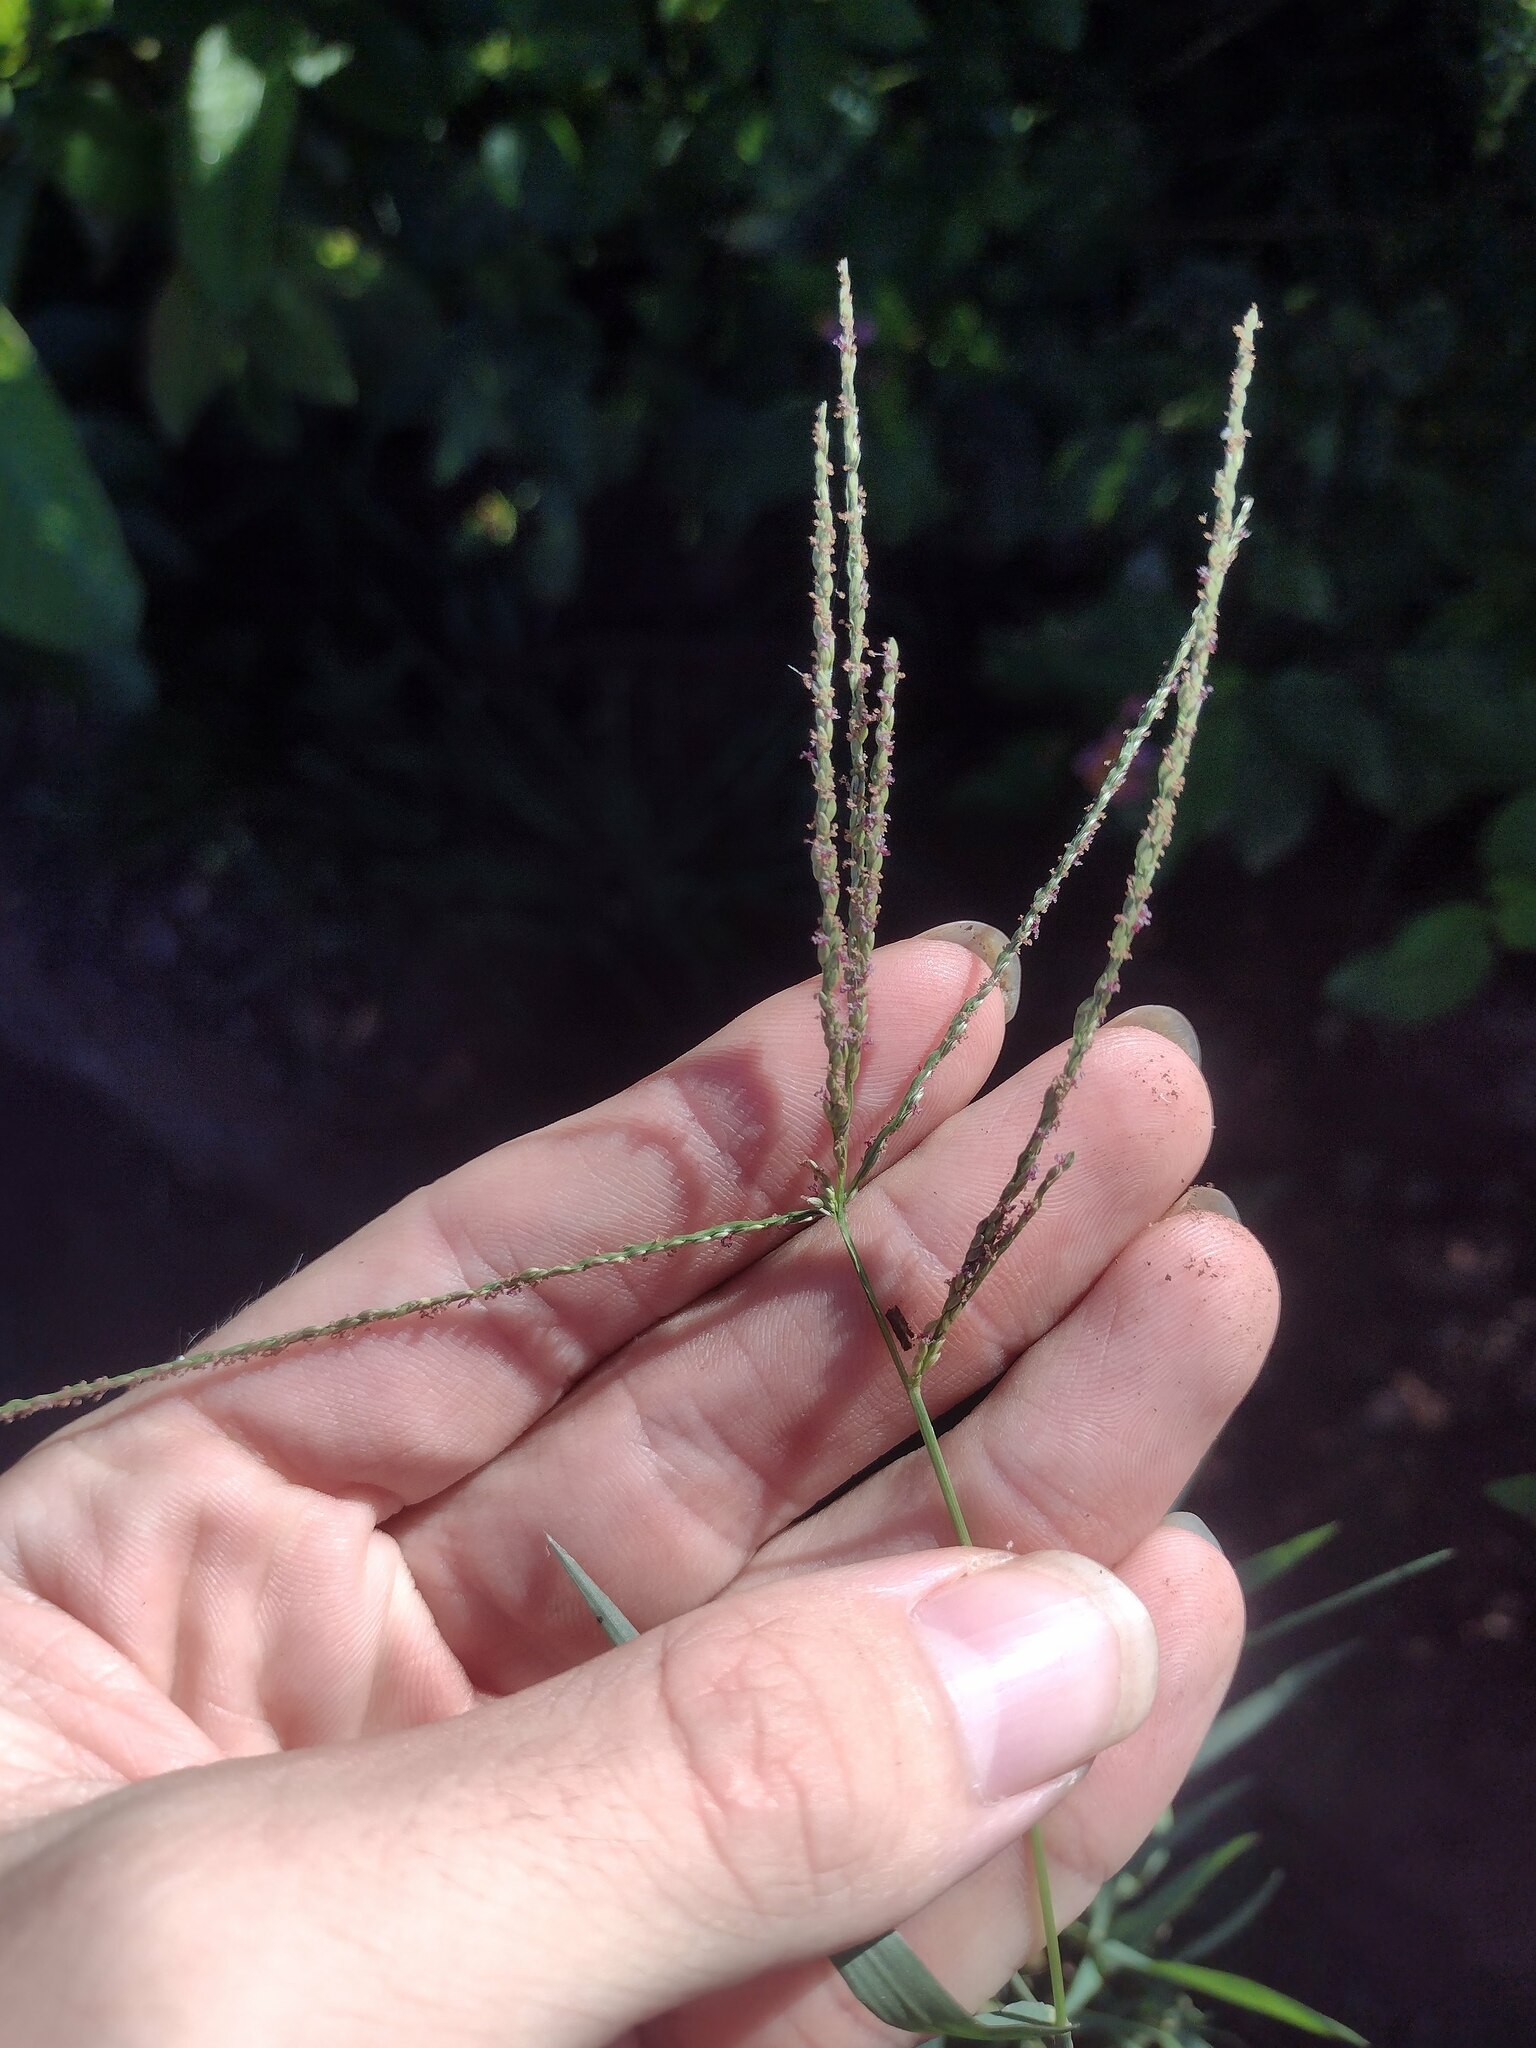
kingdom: Plantae
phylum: Tracheophyta
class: Liliopsida
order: Poales
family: Poaceae
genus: Digitaria
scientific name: Digitaria violascens
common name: Violet crabgrass
